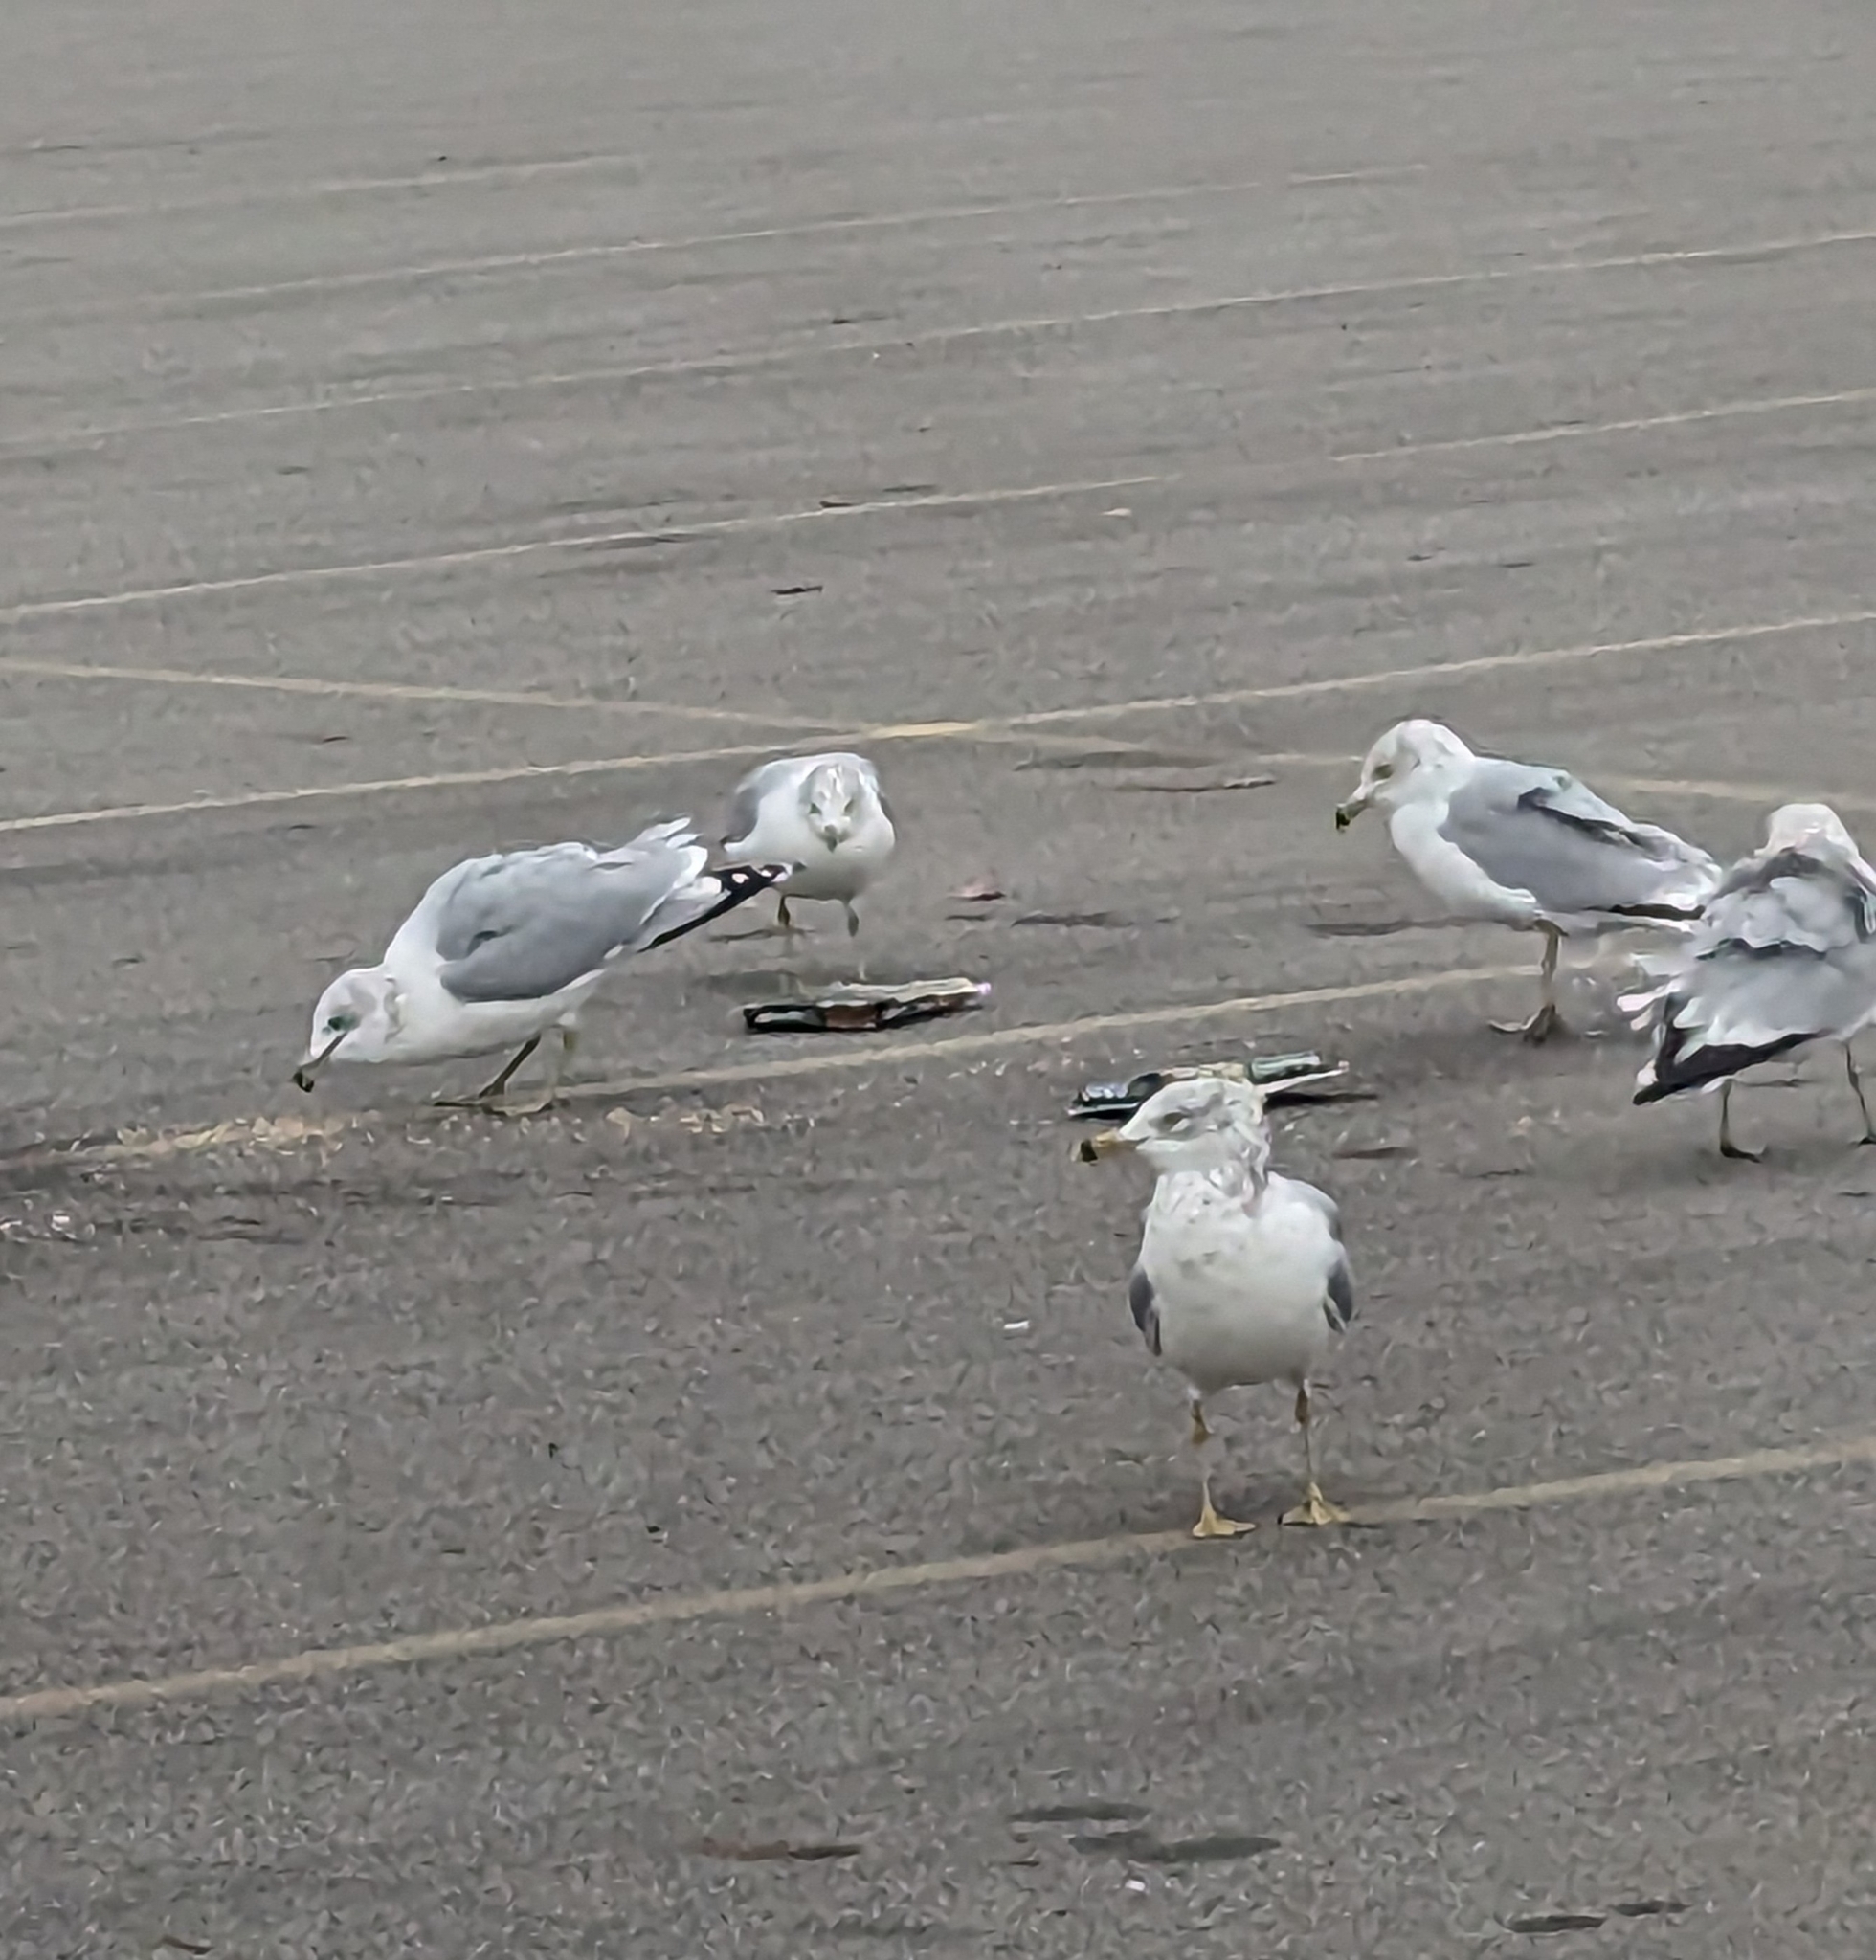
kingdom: Animalia
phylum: Chordata
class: Aves
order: Charadriiformes
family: Laridae
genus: Larus
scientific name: Larus delawarensis
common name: Ring-billed gull
